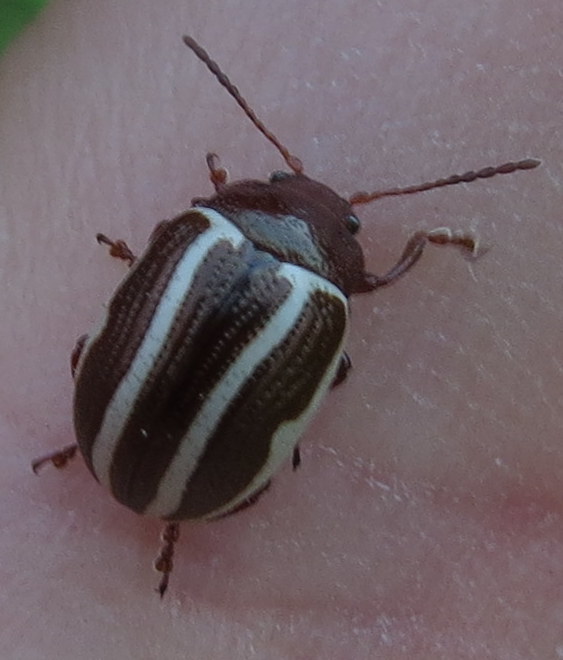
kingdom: Animalia
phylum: Arthropoda
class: Insecta
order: Coleoptera
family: Chrysomelidae
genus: Calligrapha
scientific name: Calligrapha
